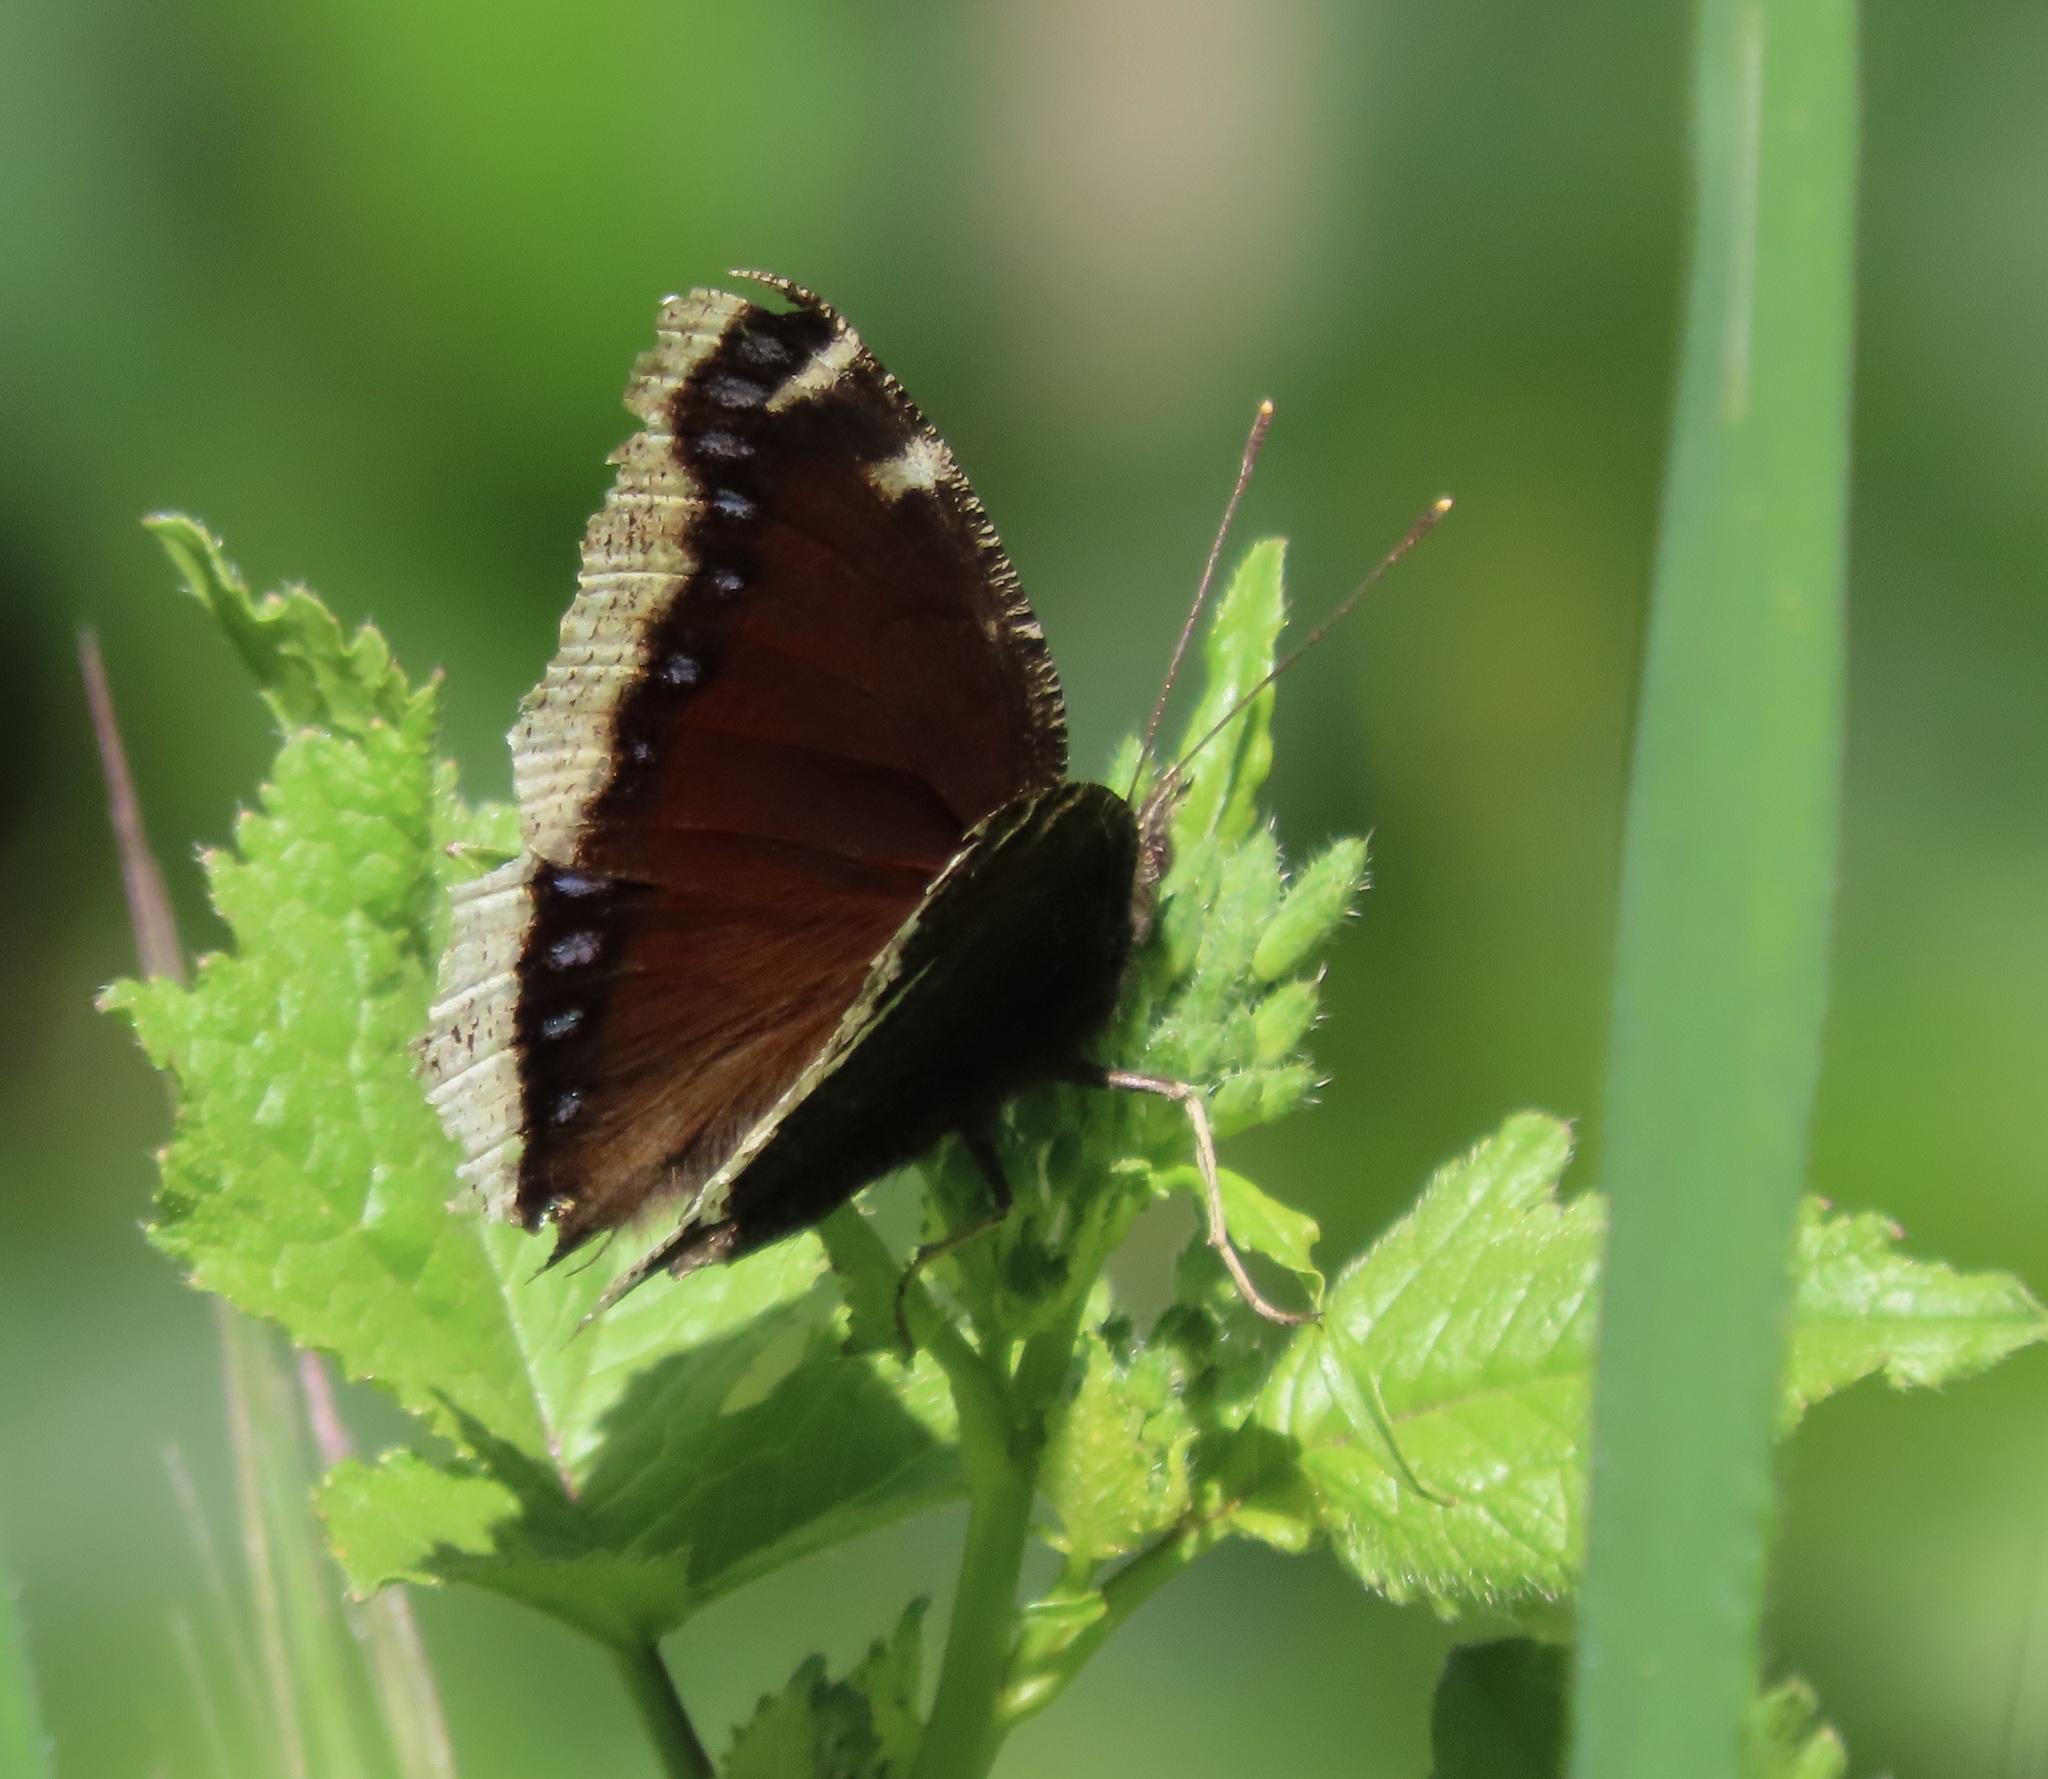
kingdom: Animalia
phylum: Arthropoda
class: Insecta
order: Lepidoptera
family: Nymphalidae
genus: Nymphalis
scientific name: Nymphalis antiopa
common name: Camberwell beauty
